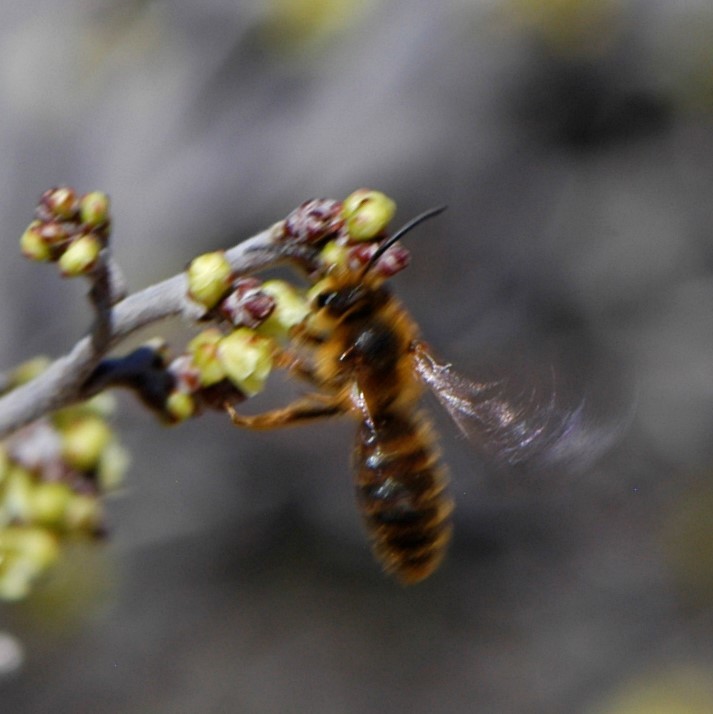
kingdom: Animalia
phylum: Arthropoda
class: Insecta
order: Hymenoptera
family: Andrenidae
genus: Andrena
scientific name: Andrena prunorum
